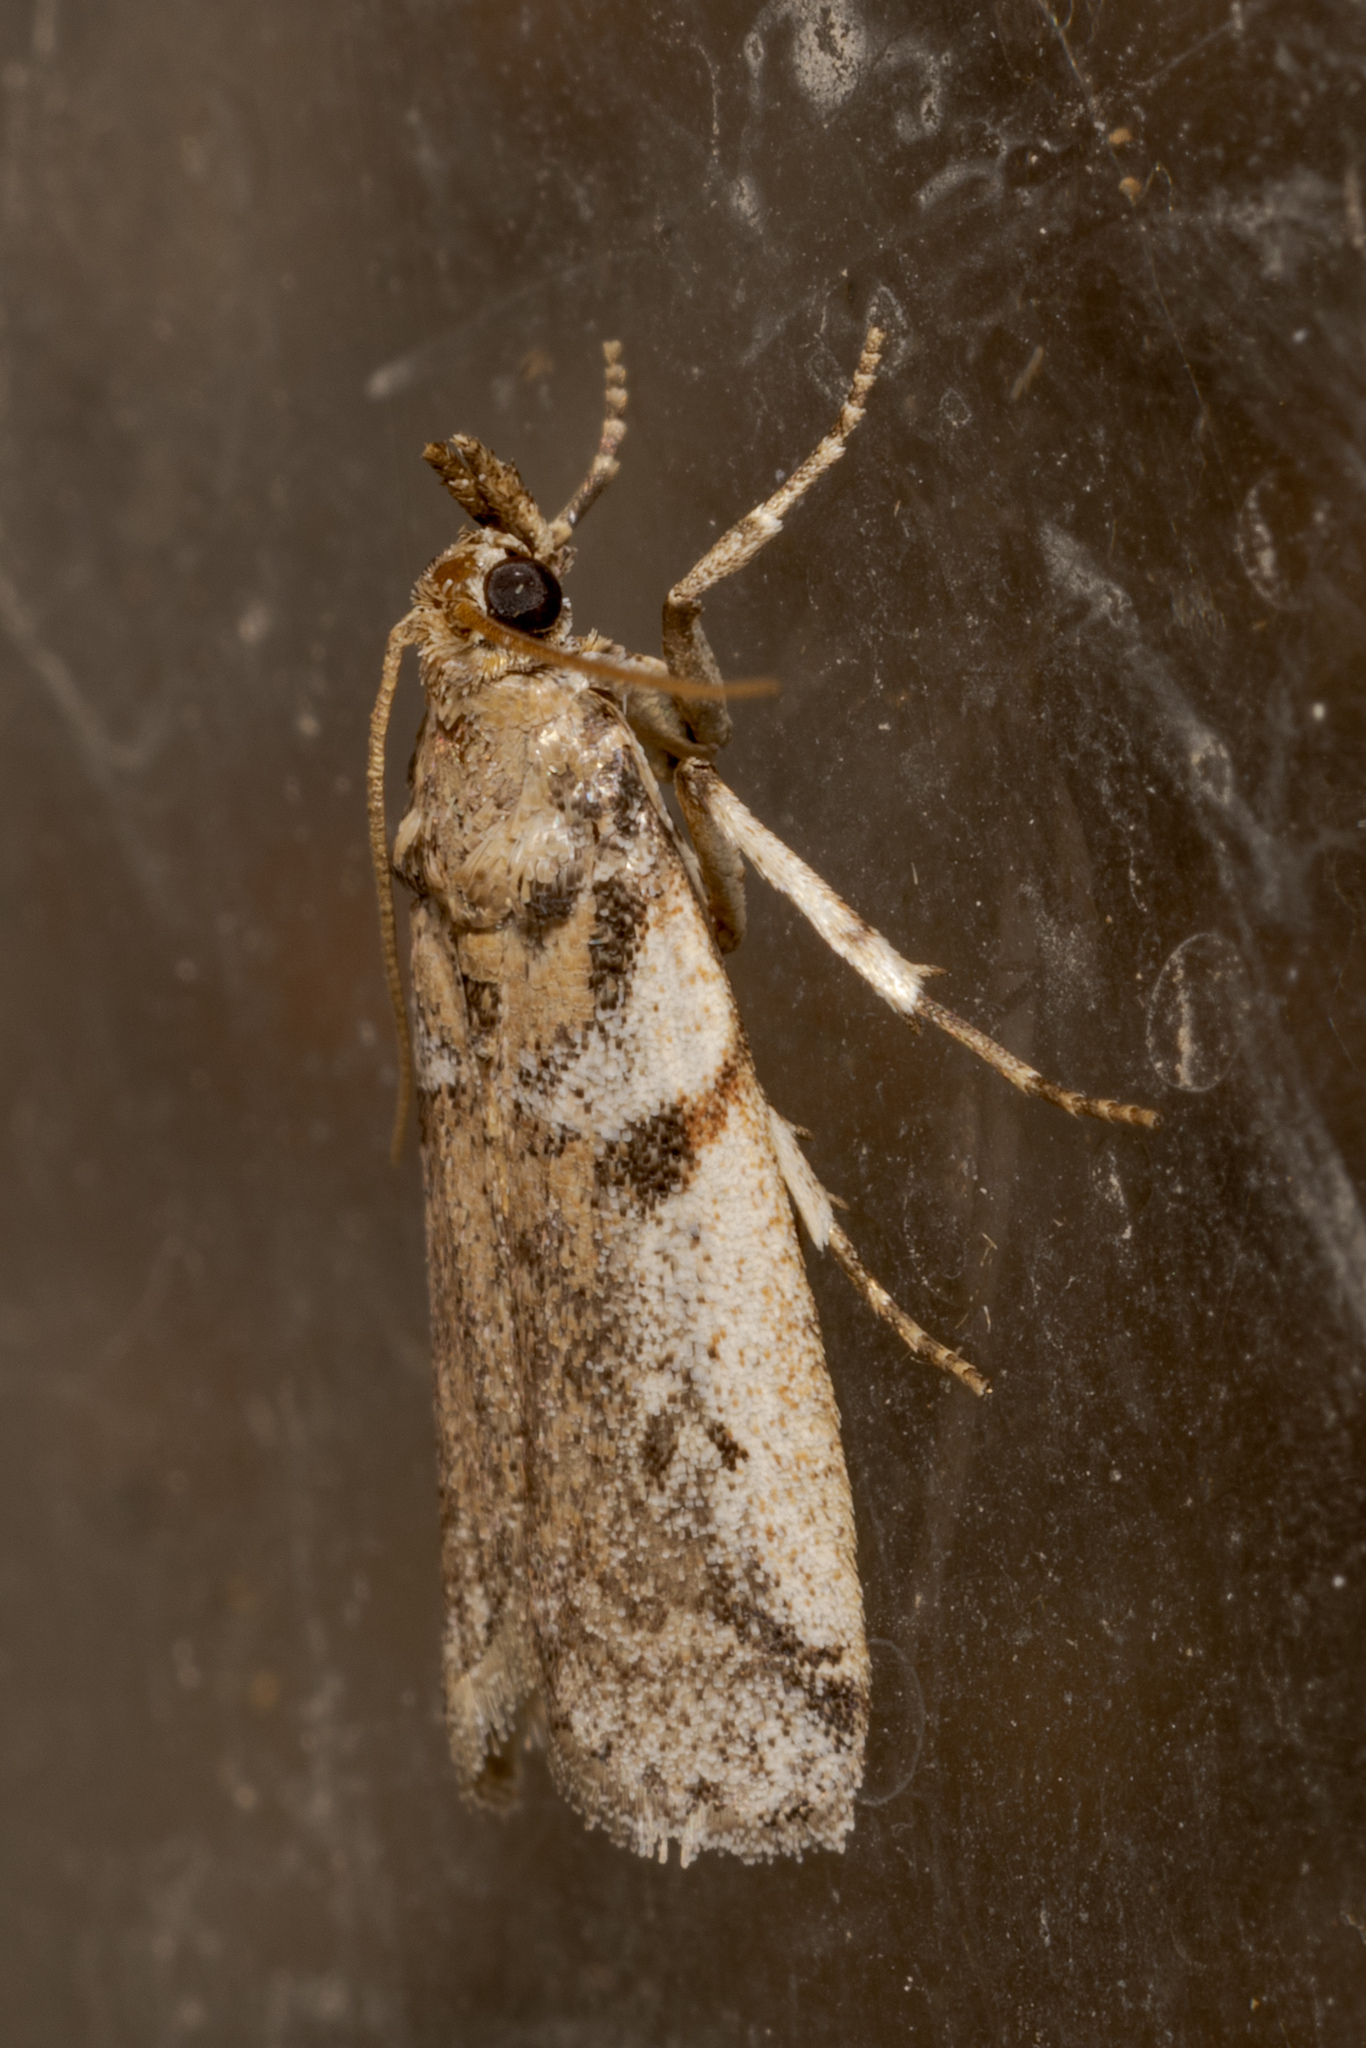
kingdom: Animalia
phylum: Arthropoda
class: Insecta
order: Lepidoptera
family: Pyralidae
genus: Laetilia
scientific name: Laetilia coccidivora
